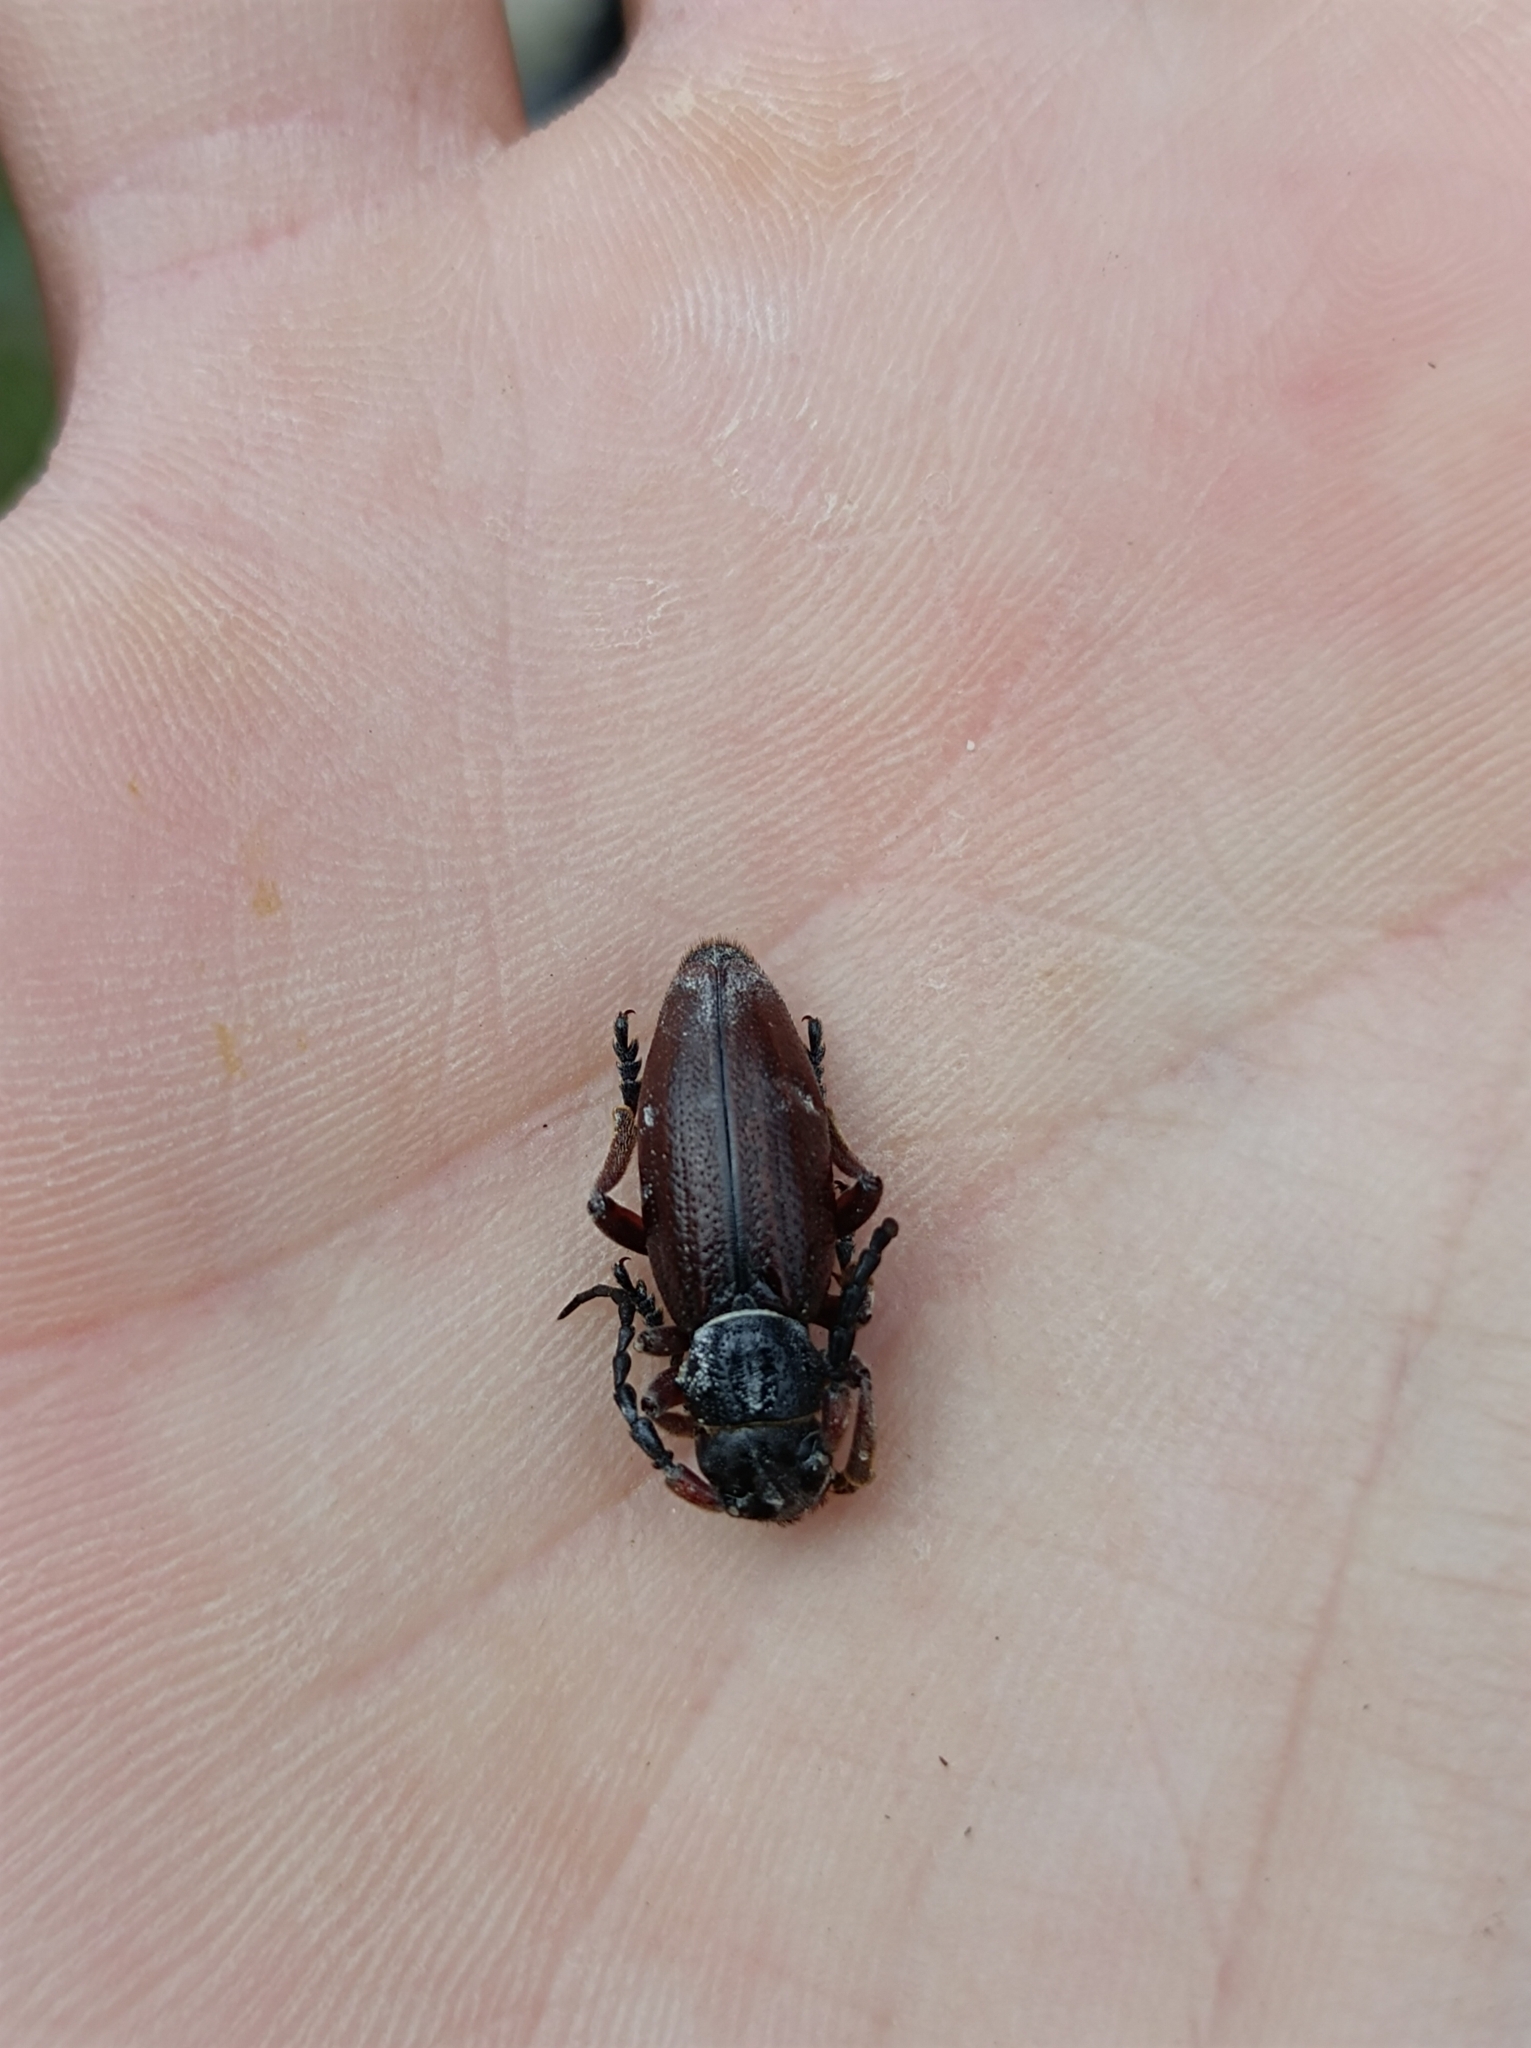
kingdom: Animalia
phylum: Arthropoda
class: Insecta
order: Coleoptera
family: Cerambycidae
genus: Dorcadion
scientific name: Dorcadion fulvum
